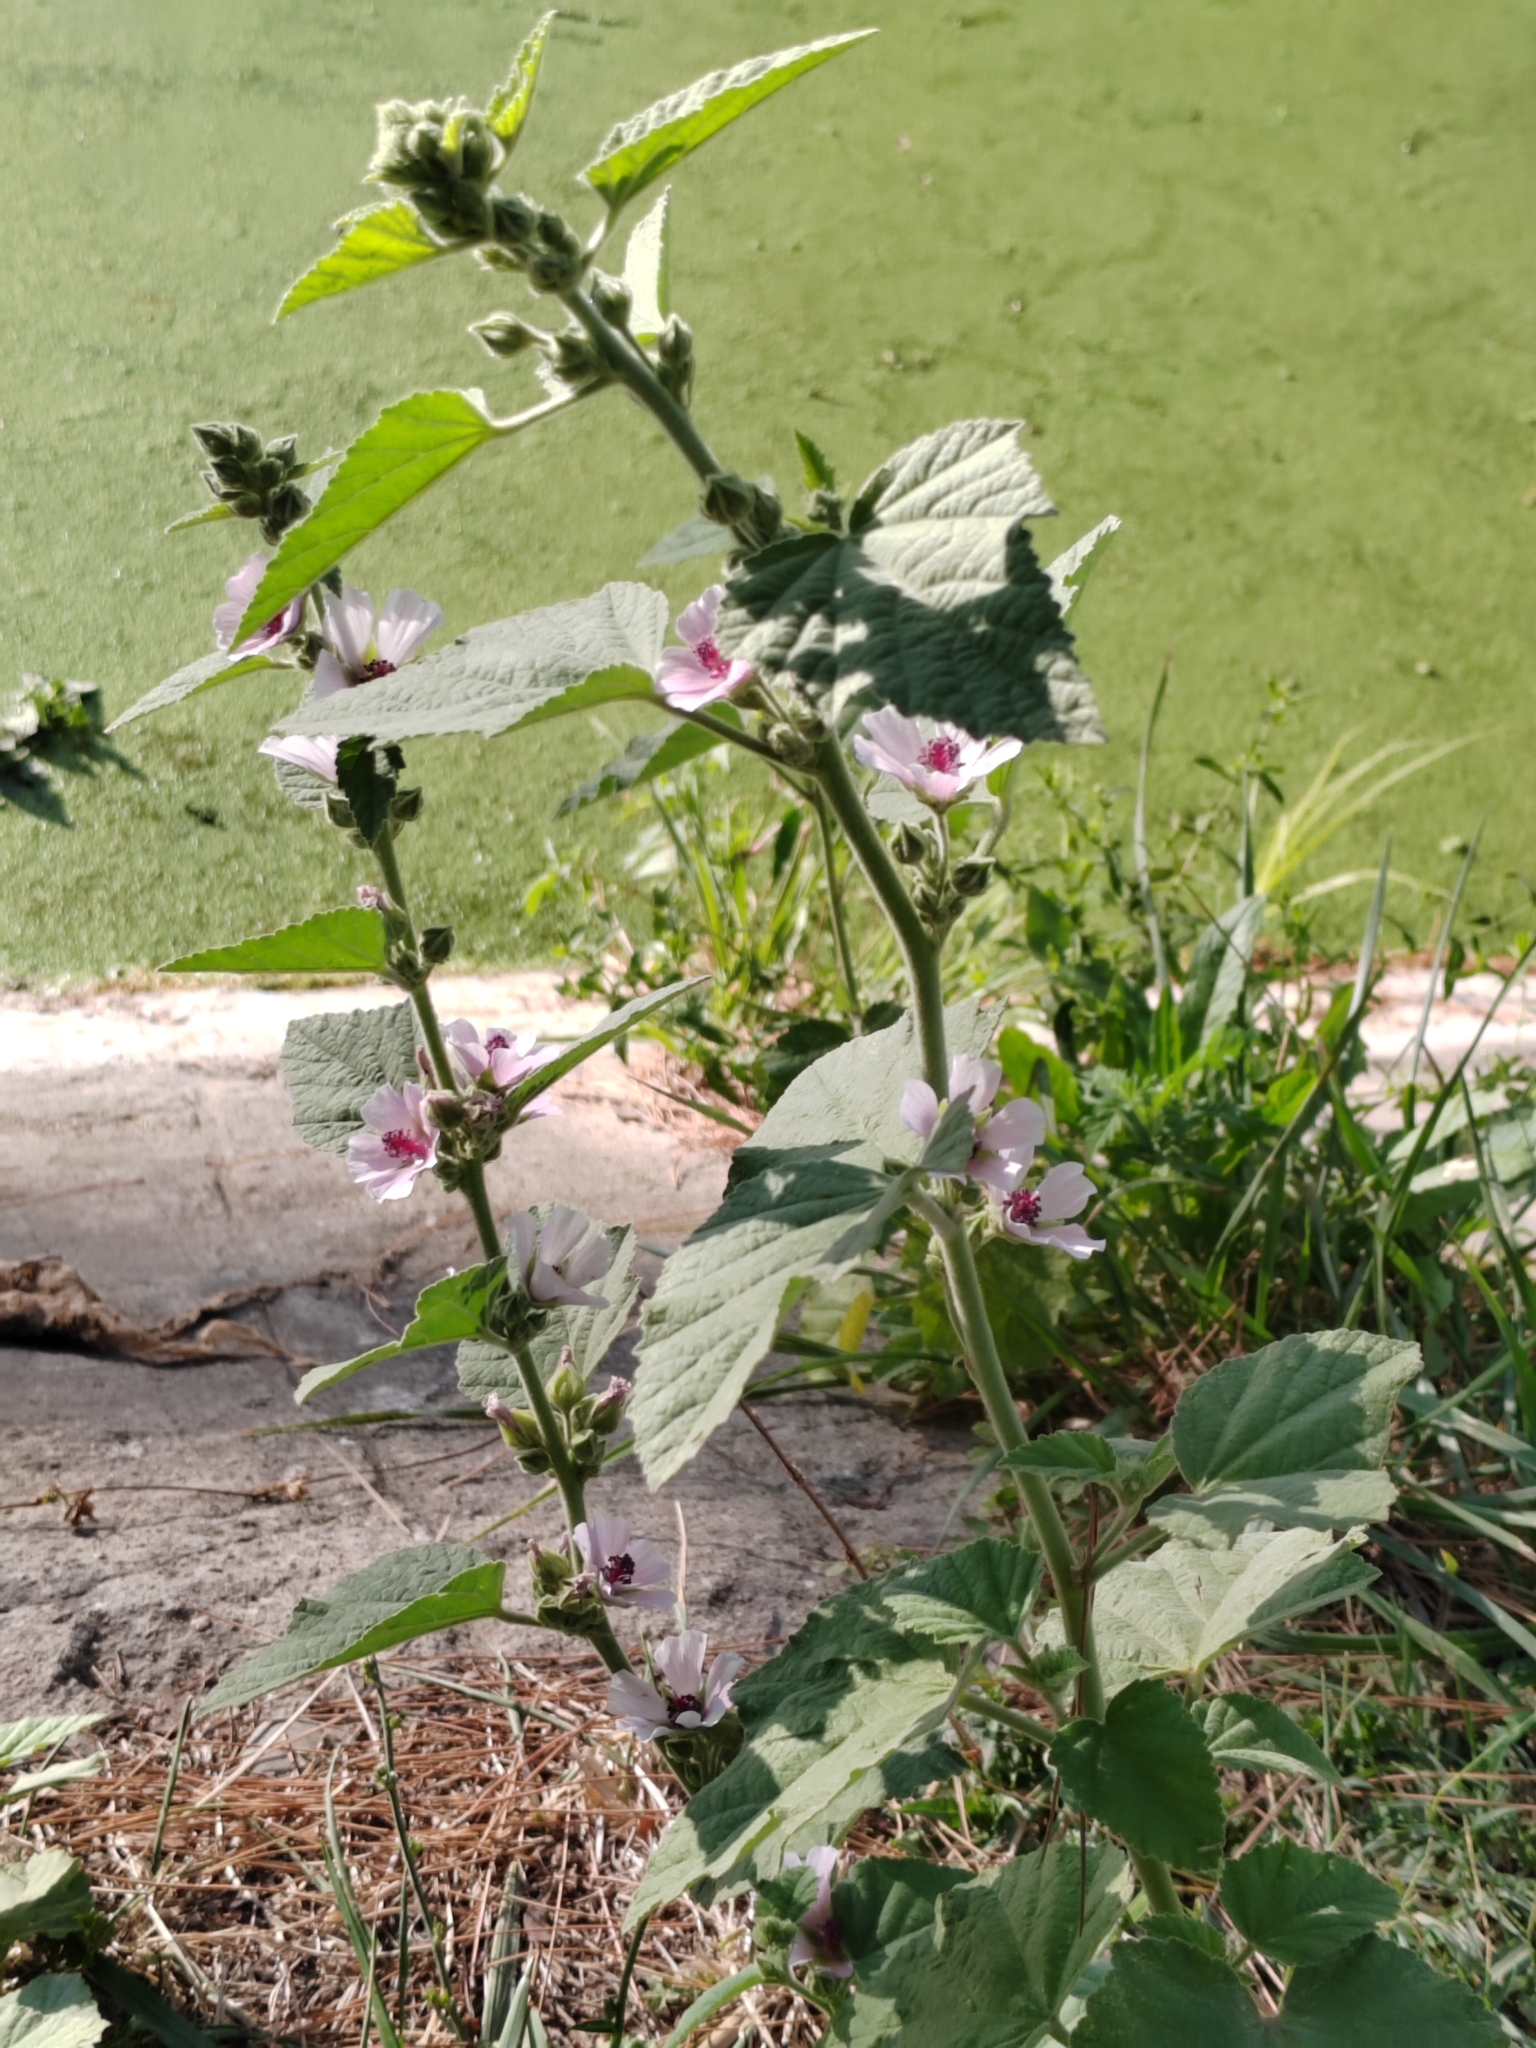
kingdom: Plantae
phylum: Tracheophyta
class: Magnoliopsida
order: Malvales
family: Malvaceae
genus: Althaea
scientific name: Althaea officinalis
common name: Marsh-mallow
